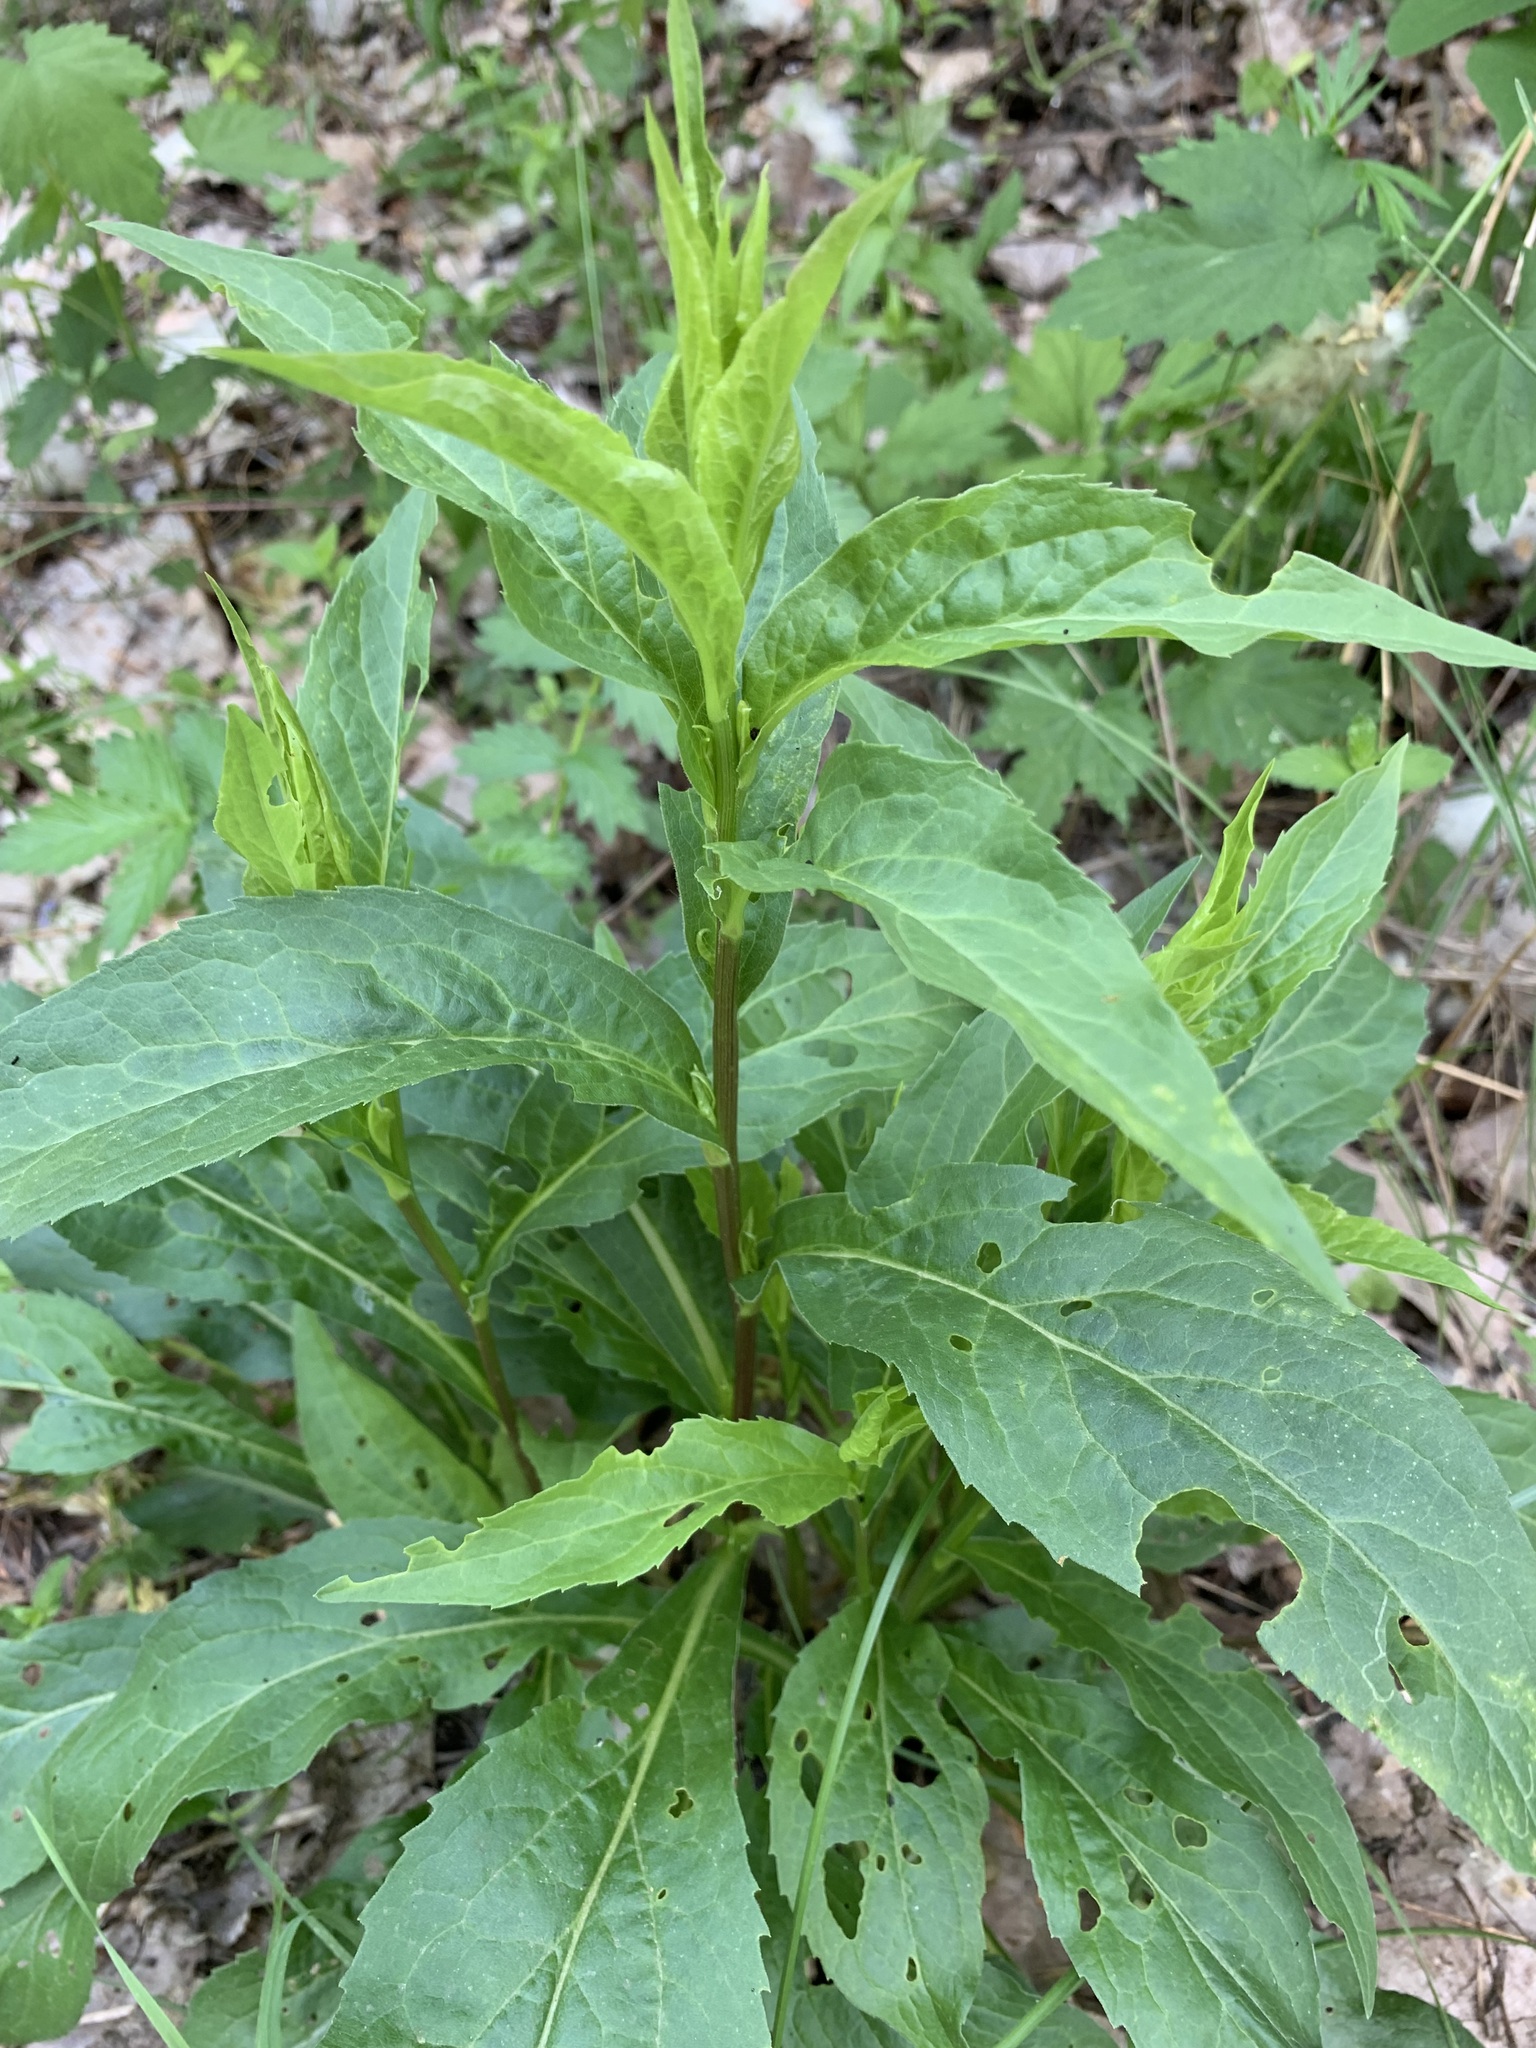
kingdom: Plantae
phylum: Tracheophyta
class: Magnoliopsida
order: Asterales
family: Asteraceae
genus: Solidago
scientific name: Solidago virgaurea
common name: Goldenrod
